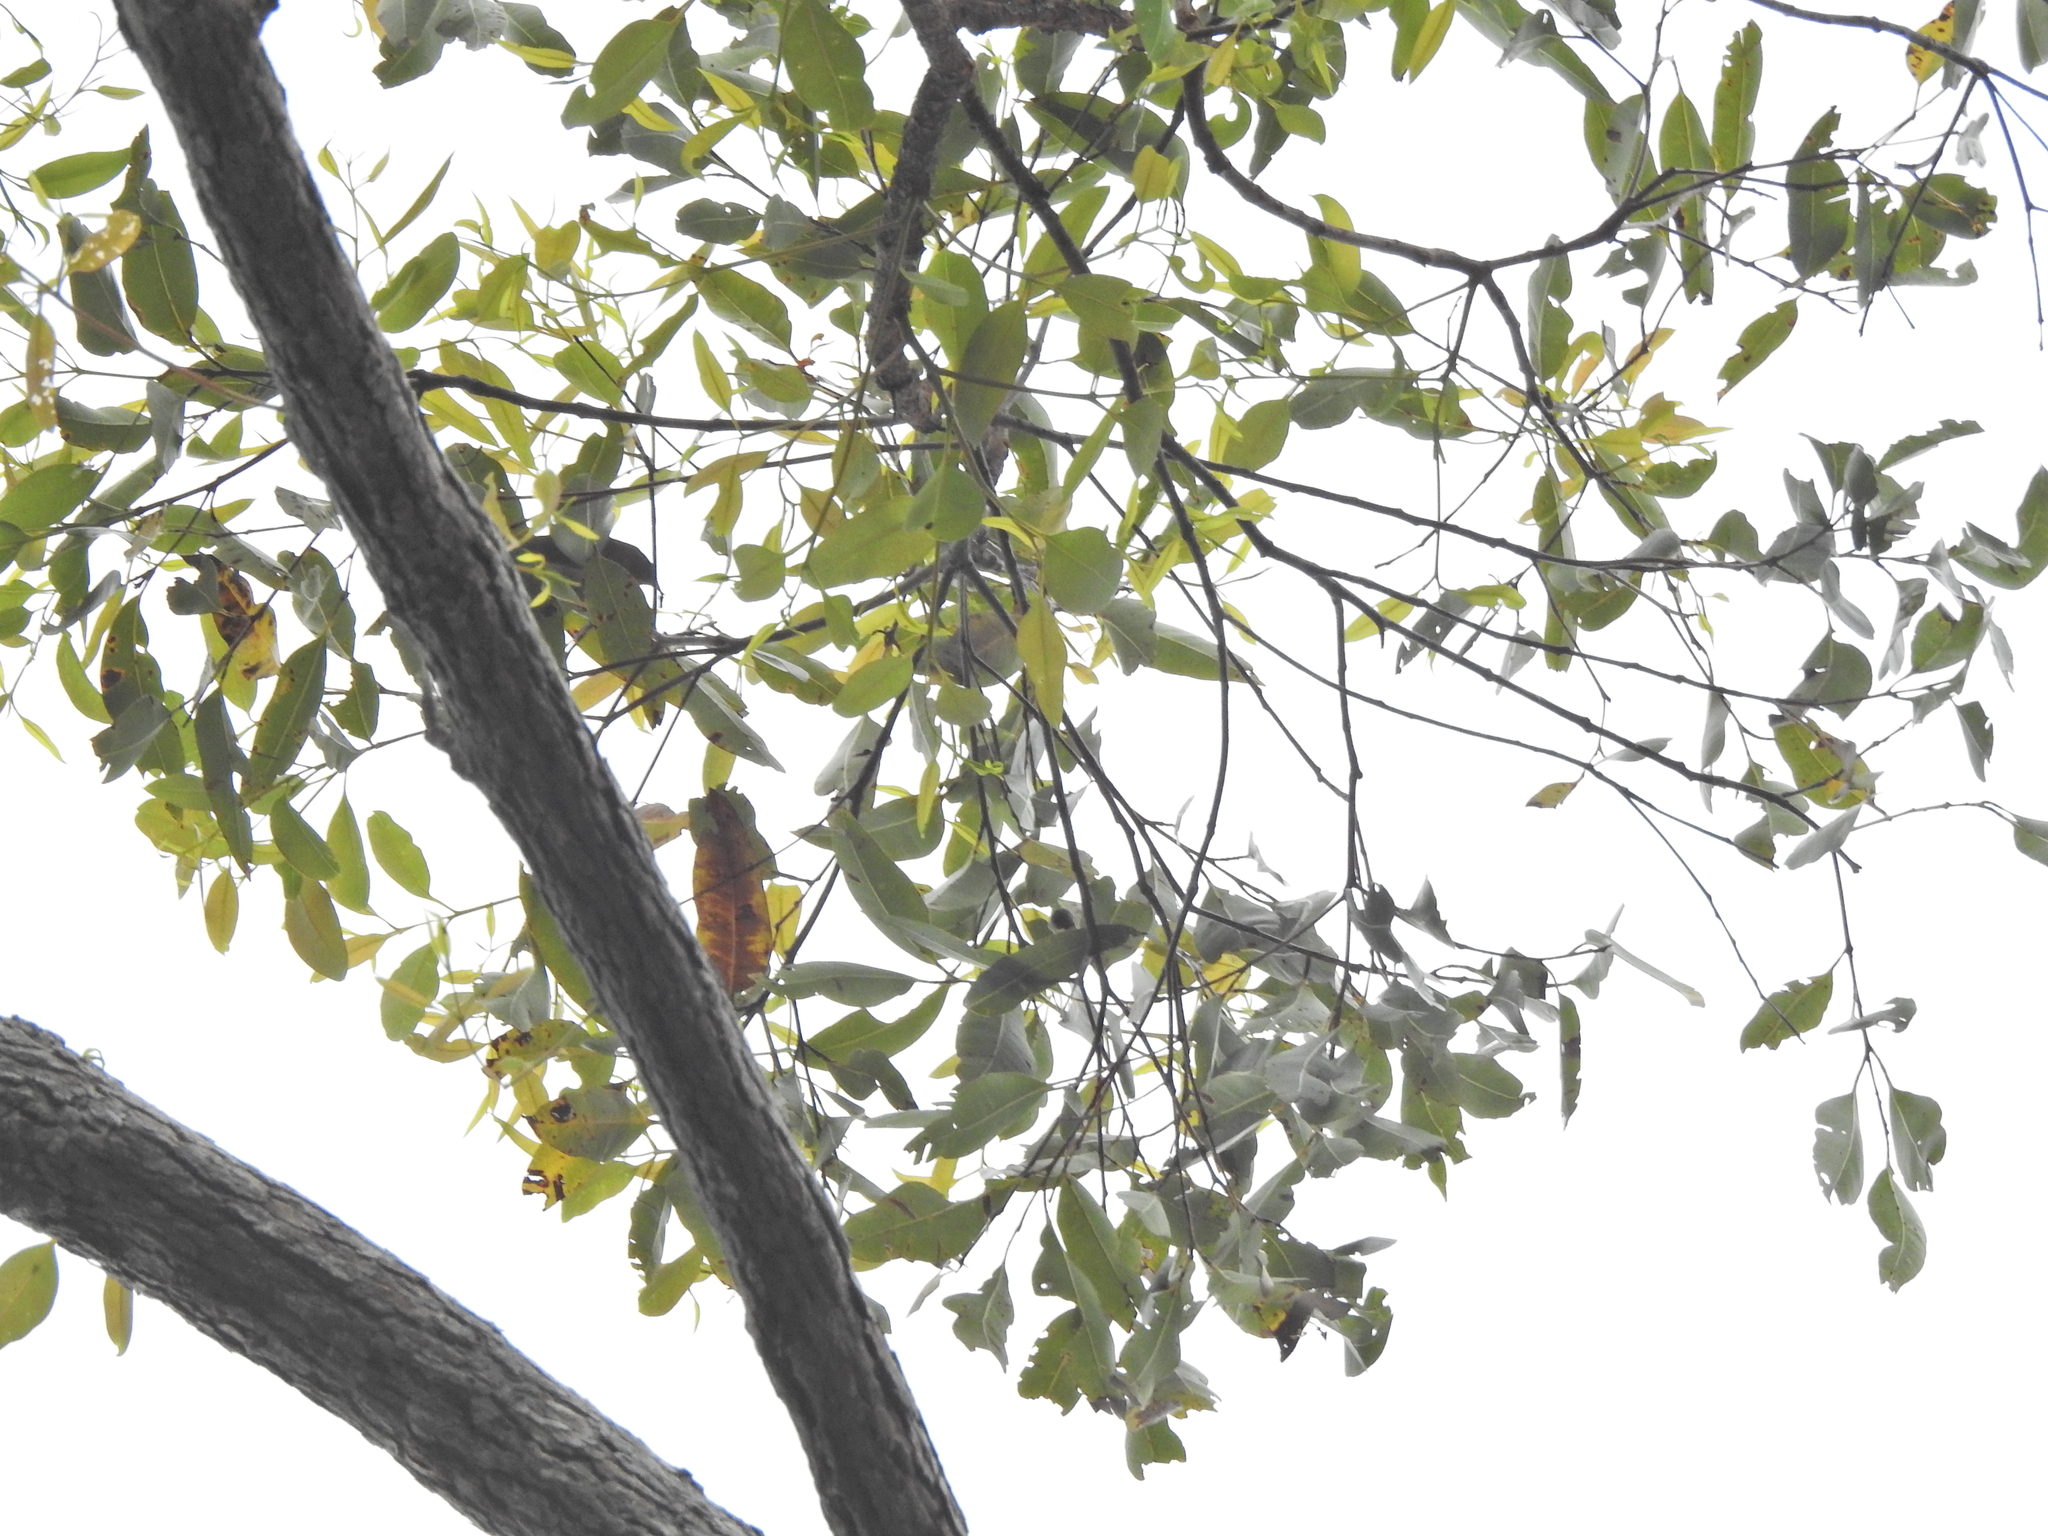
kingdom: Plantae
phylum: Tracheophyta
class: Magnoliopsida
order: Myrtales
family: Myrtaceae
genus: Corymbia
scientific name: Corymbia intermedia
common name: Pink-bloodwood
